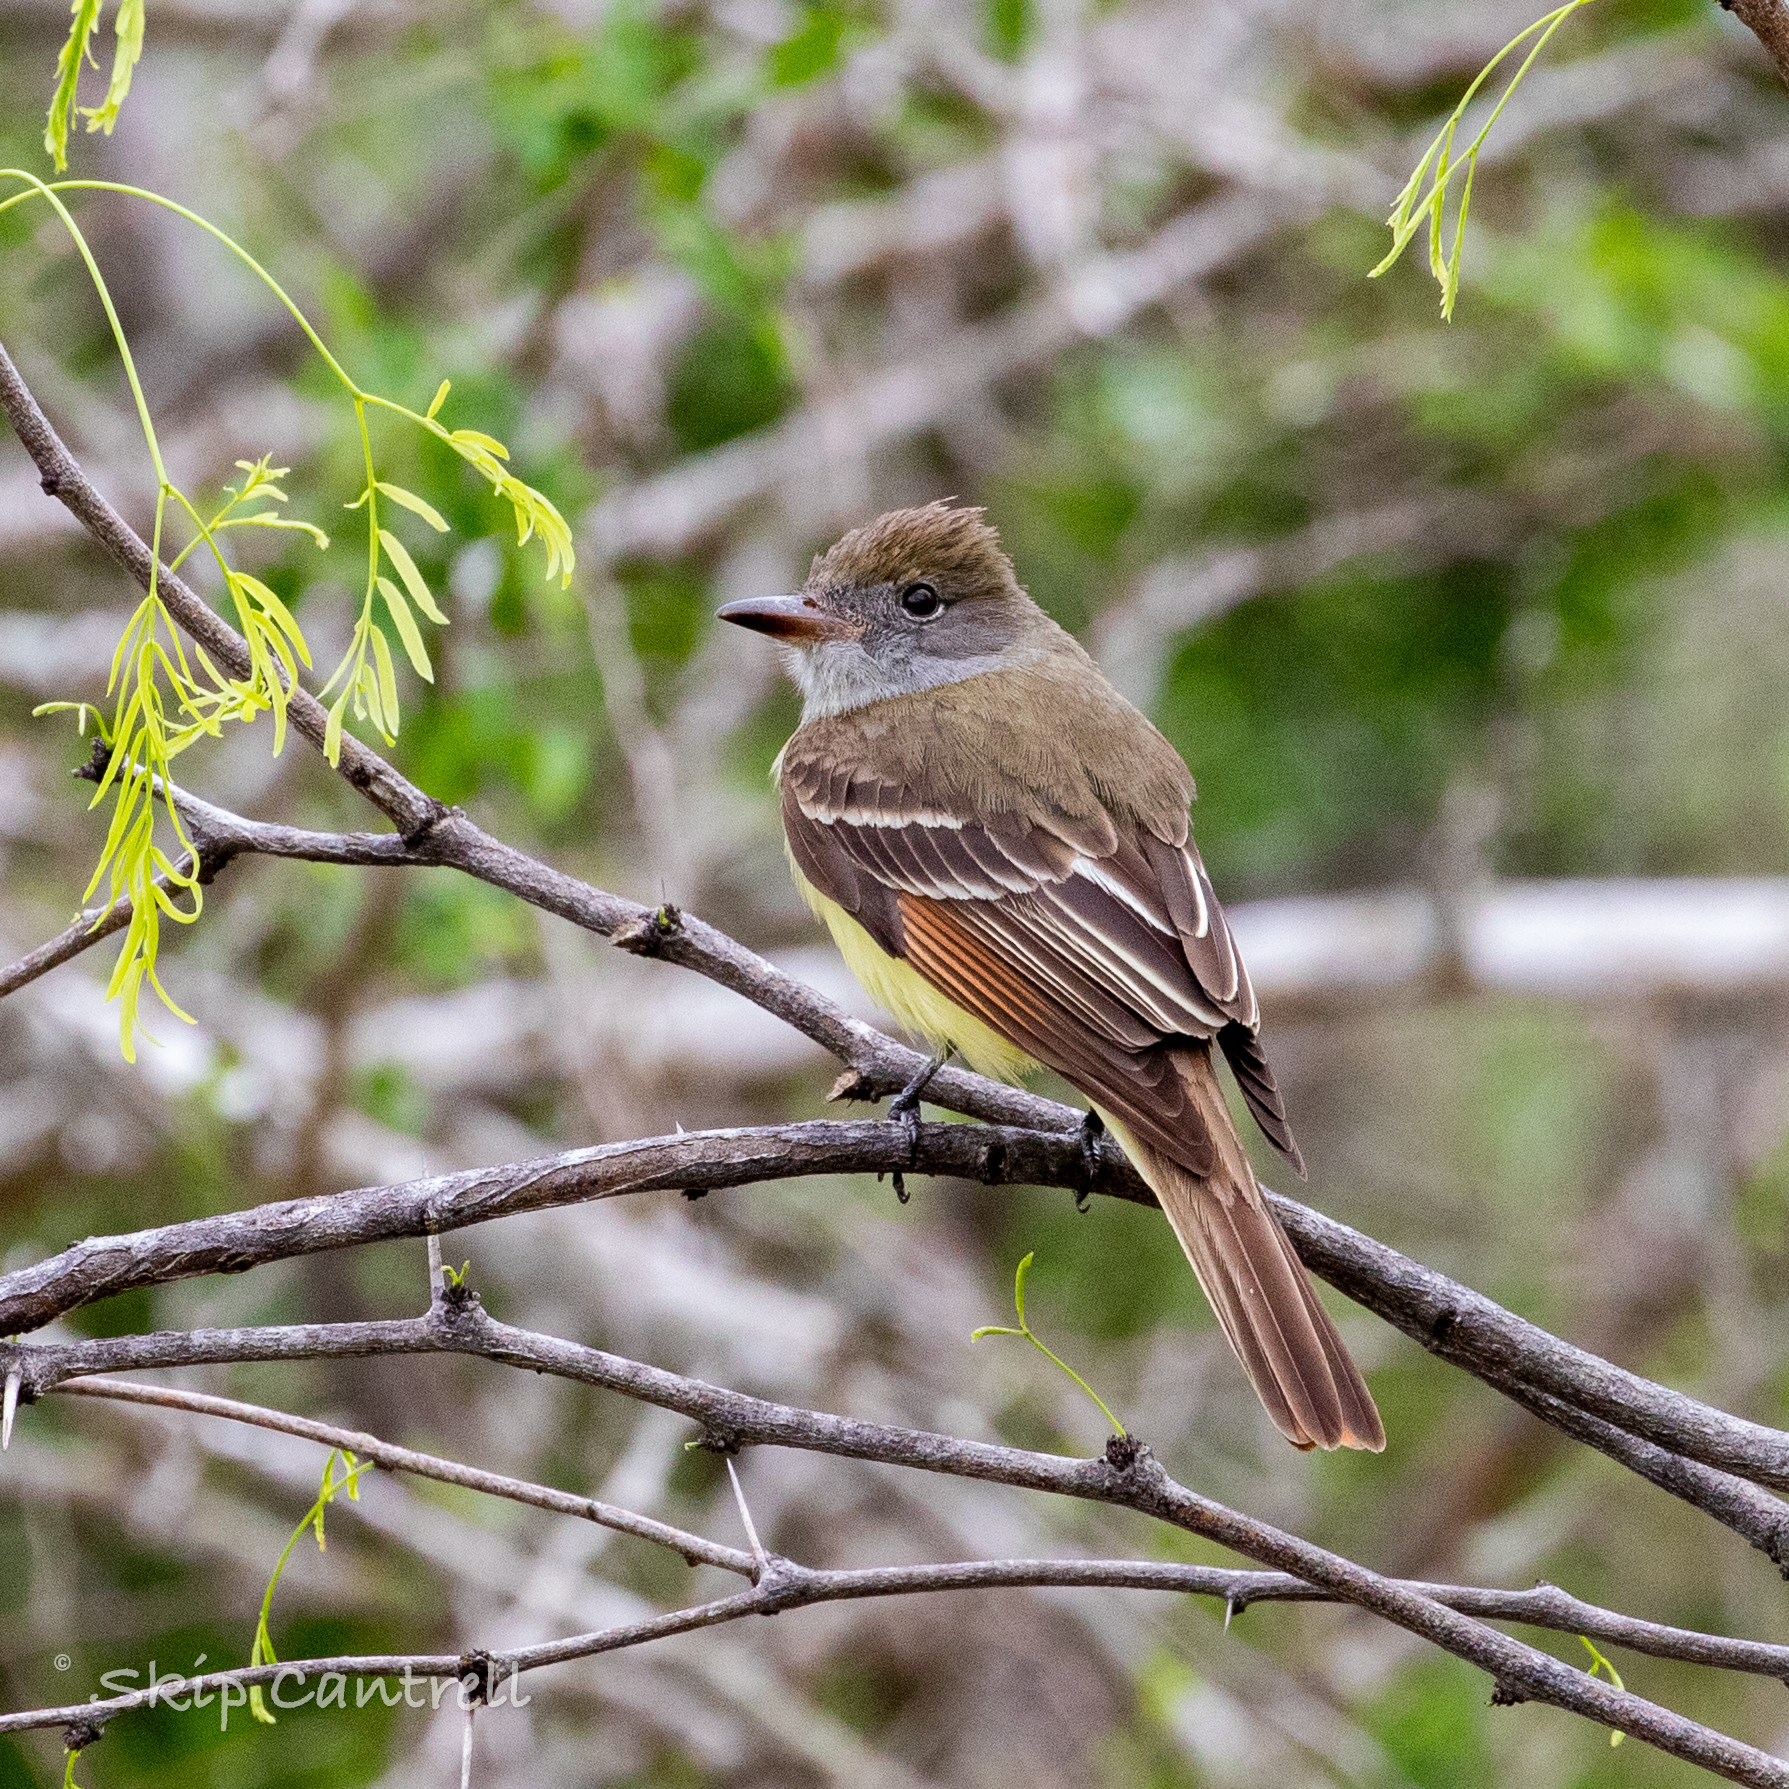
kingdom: Animalia
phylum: Chordata
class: Aves
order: Passeriformes
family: Tyrannidae
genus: Myiarchus
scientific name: Myiarchus crinitus
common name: Great crested flycatcher
